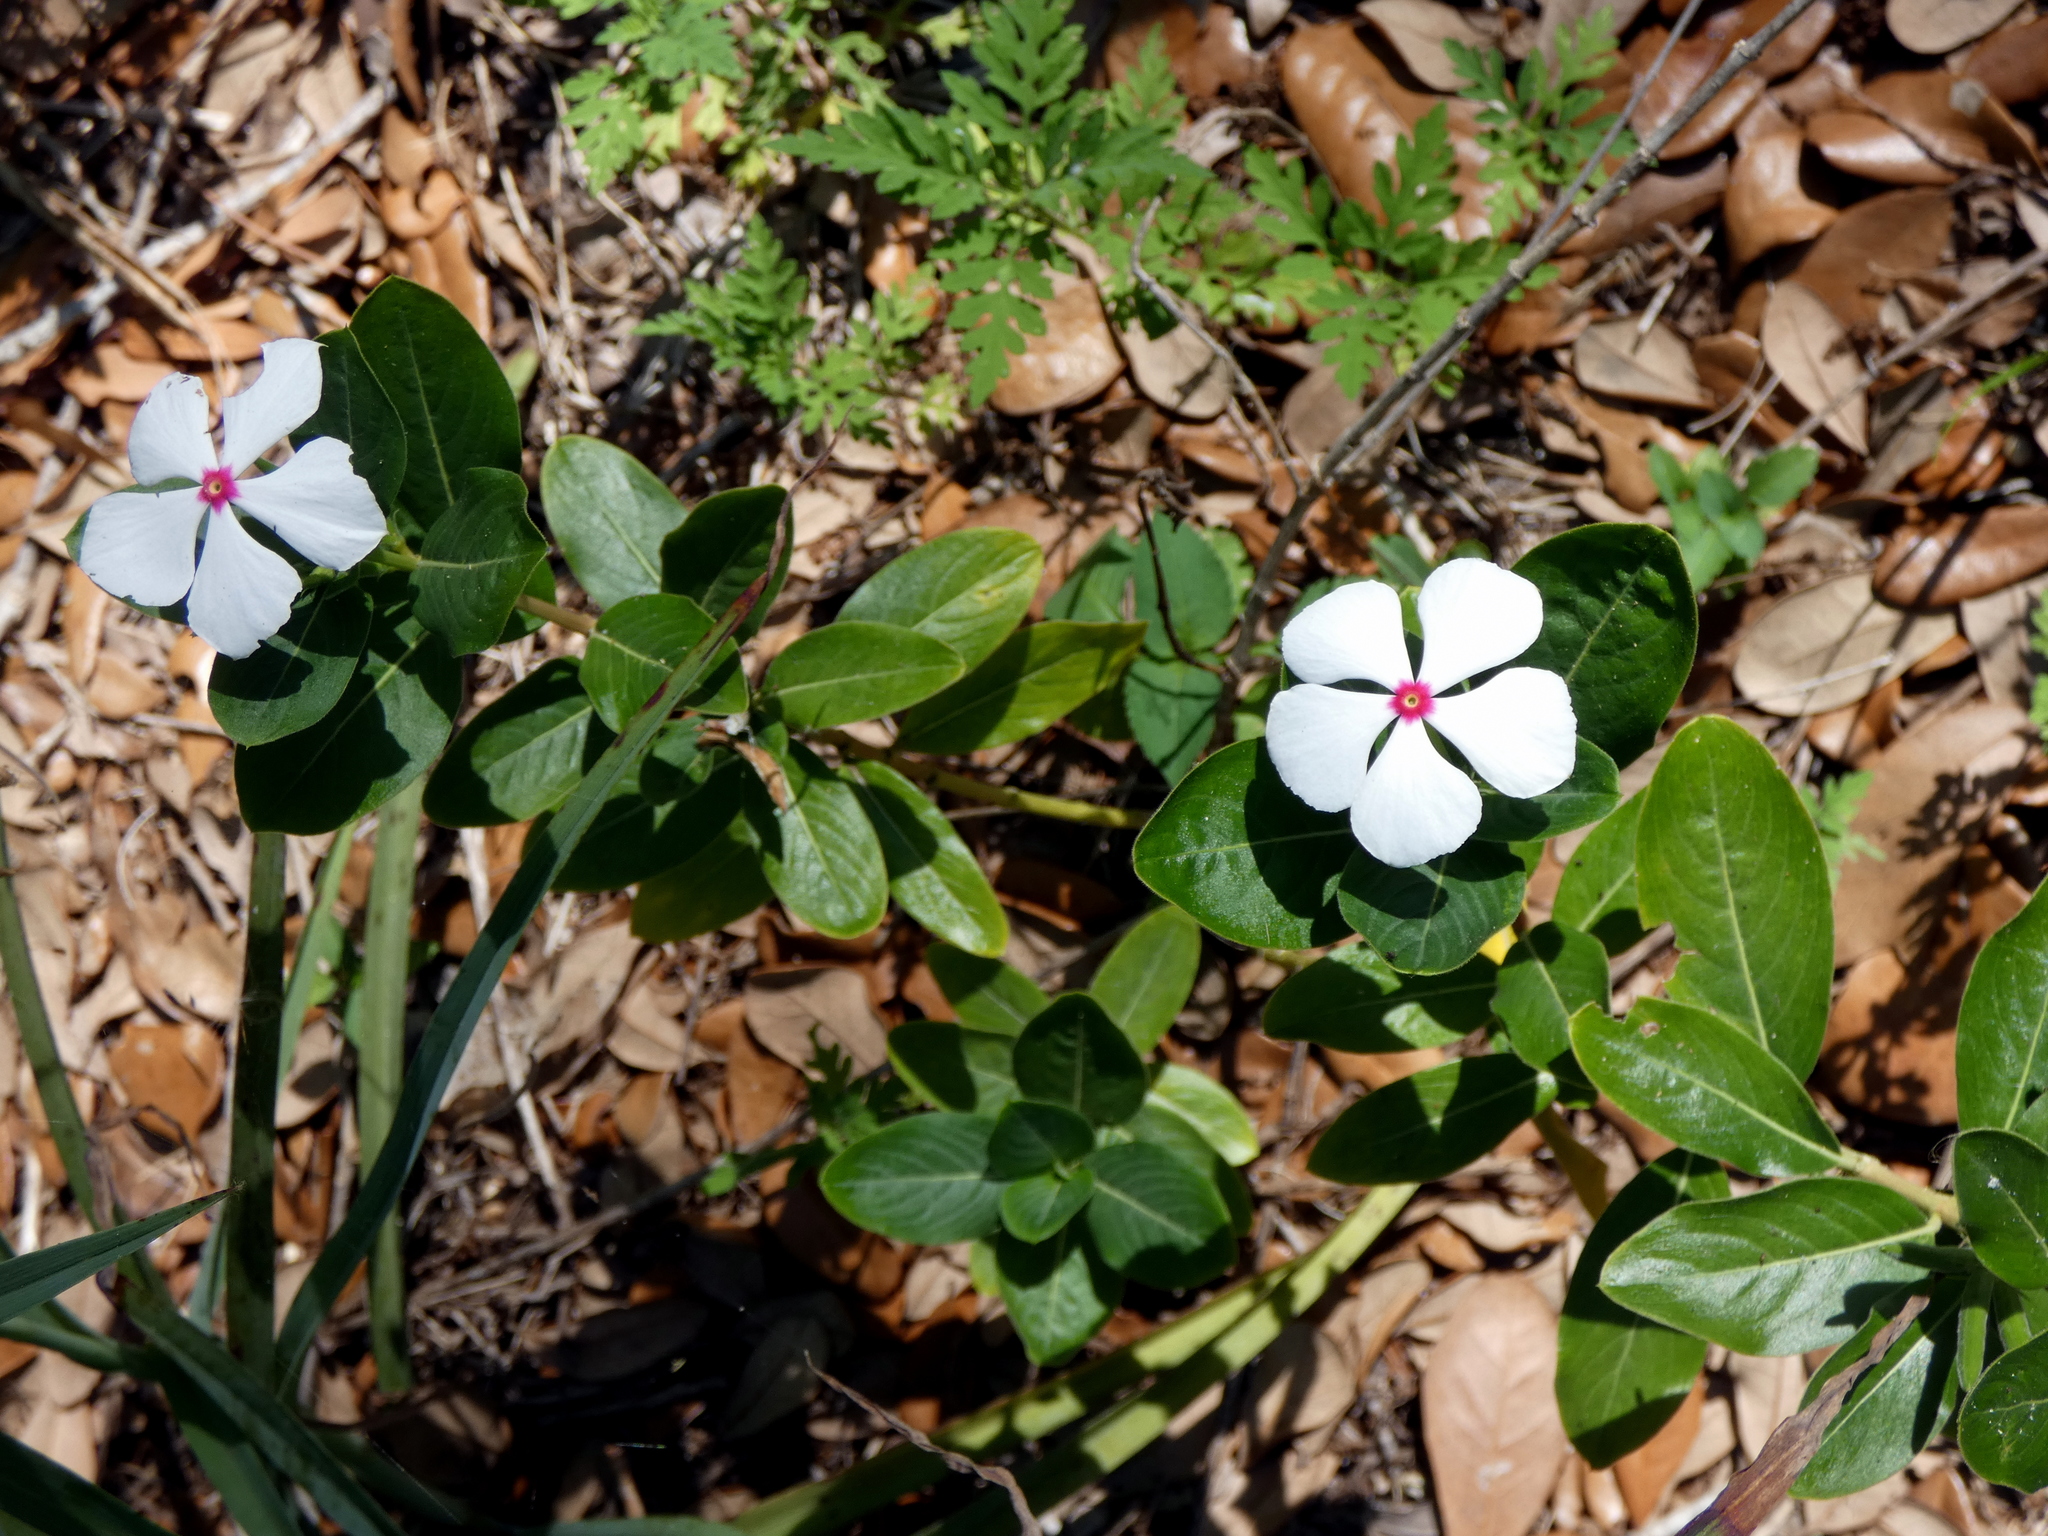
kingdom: Plantae
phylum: Tracheophyta
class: Magnoliopsida
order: Gentianales
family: Apocynaceae
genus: Catharanthus
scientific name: Catharanthus roseus
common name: Madagascar periwinkle
